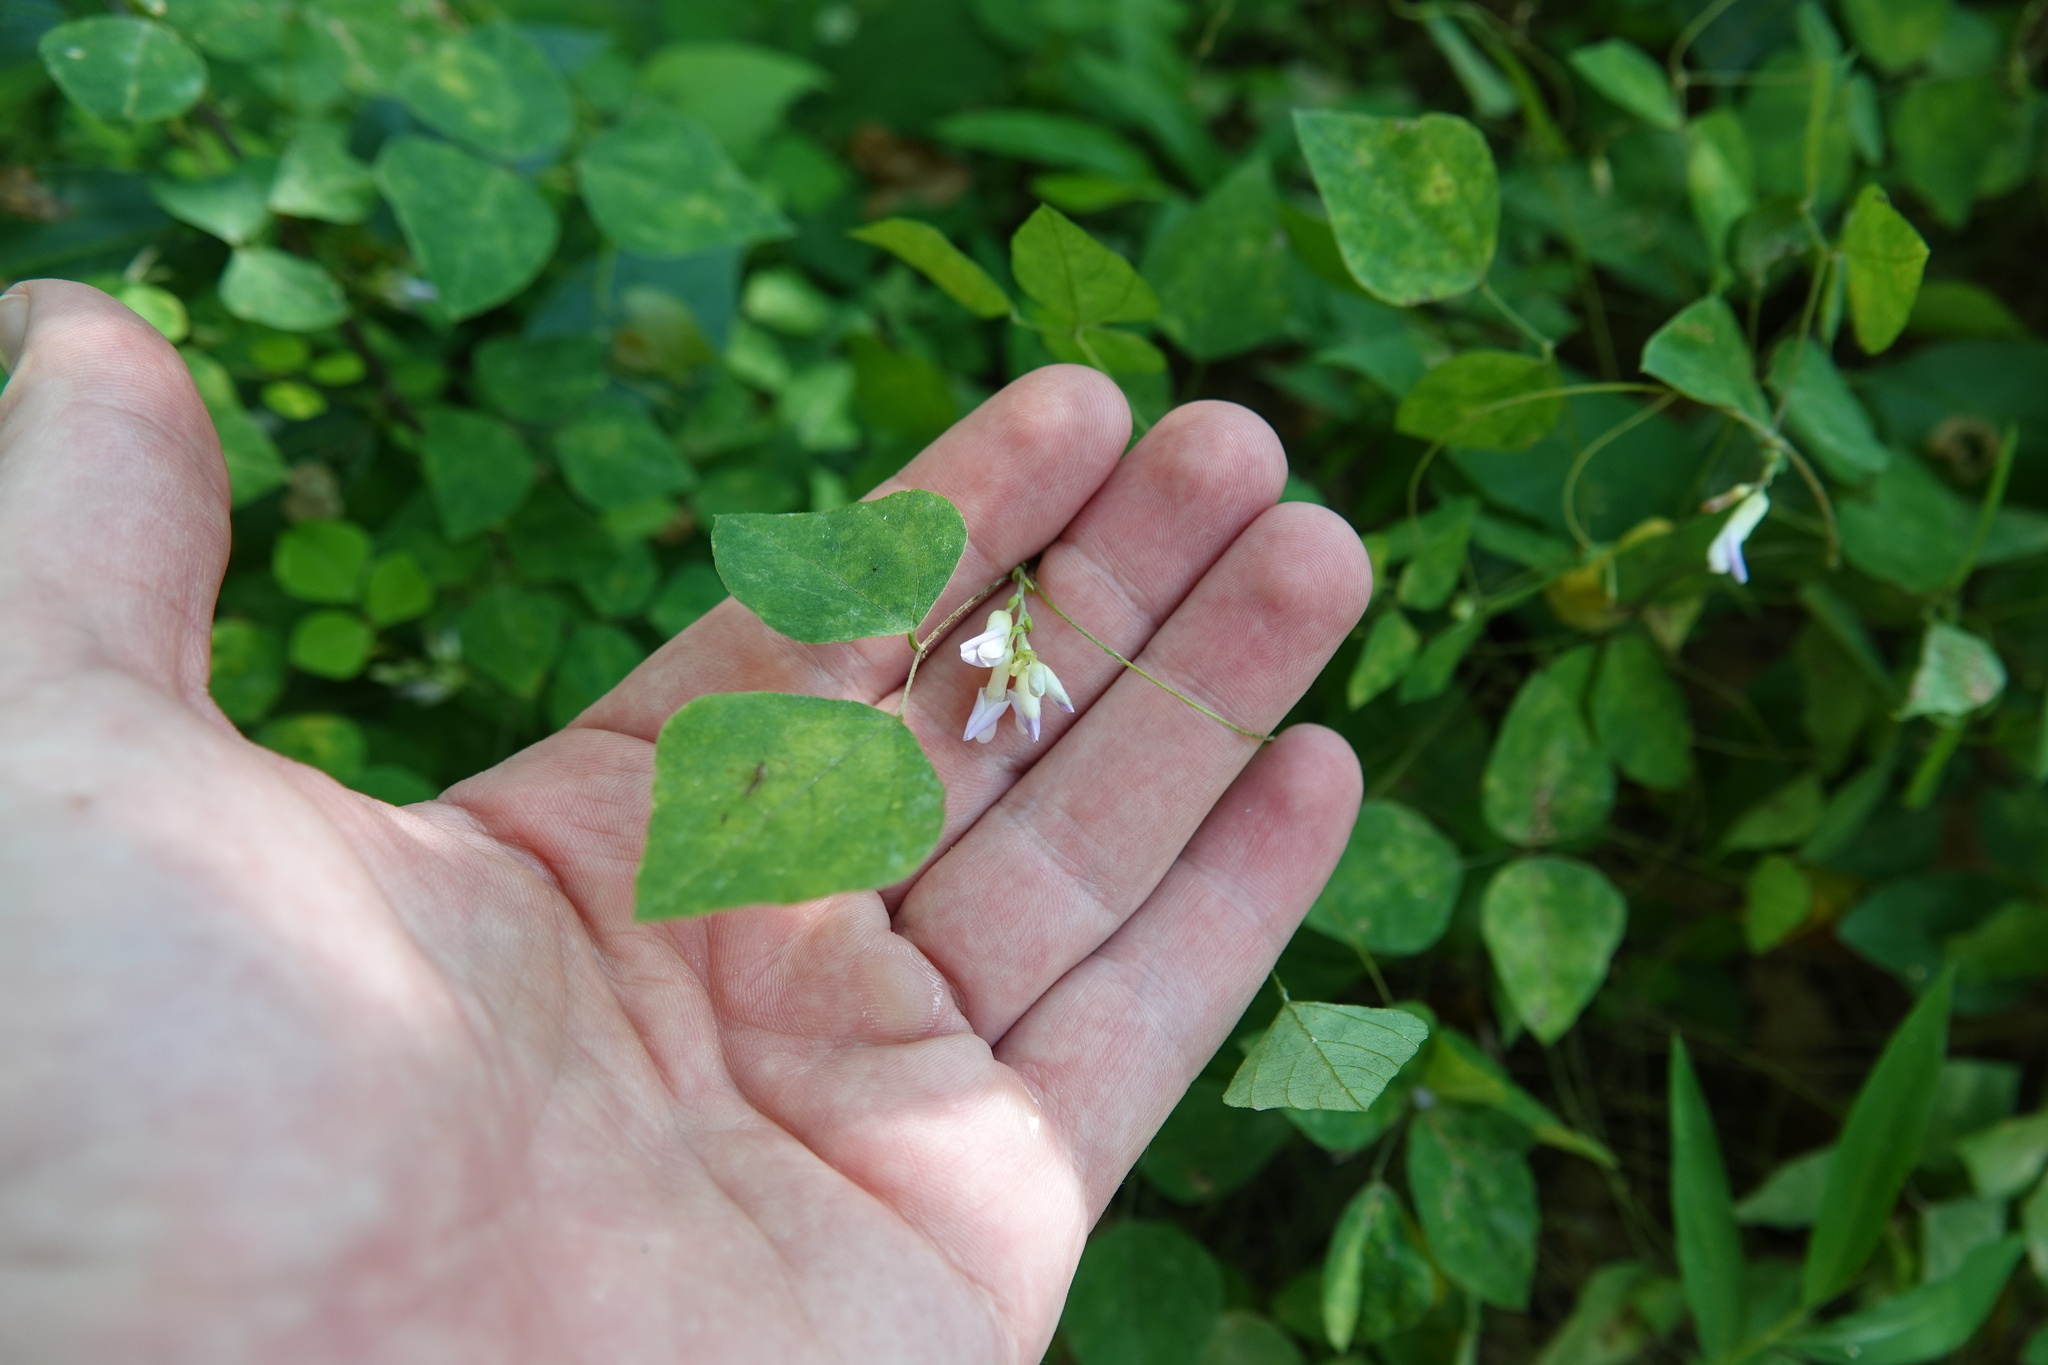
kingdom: Plantae
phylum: Tracheophyta
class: Magnoliopsida
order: Fabales
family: Fabaceae
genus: Amphicarpaea
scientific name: Amphicarpaea bracteata
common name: American hog peanut
